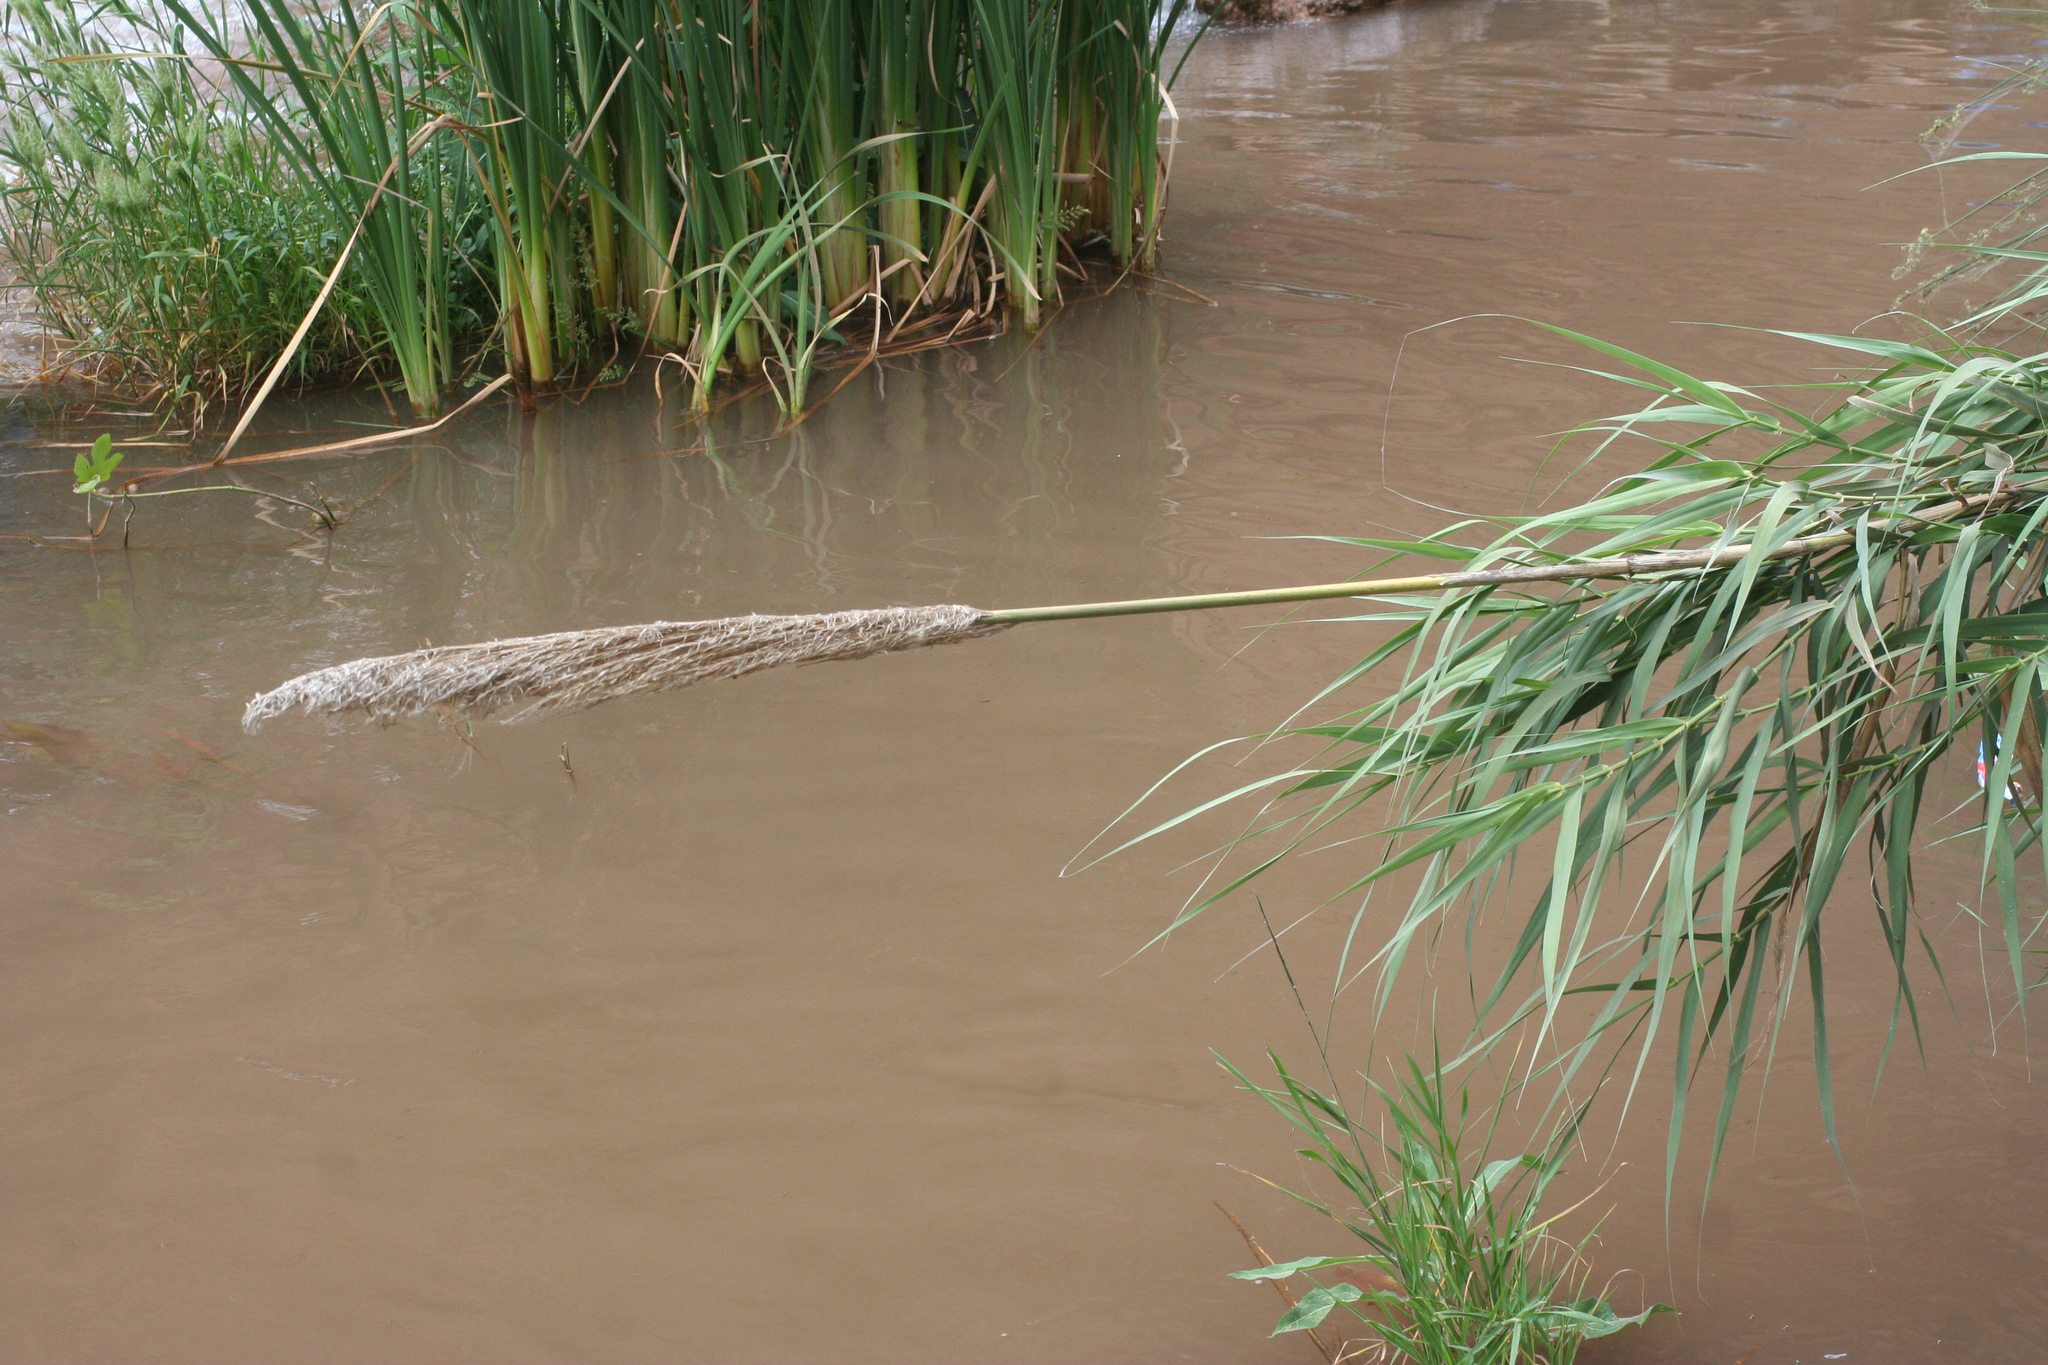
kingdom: Plantae
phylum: Tracheophyta
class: Liliopsida
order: Poales
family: Poaceae
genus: Arundo
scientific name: Arundo donax
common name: Giant reed
